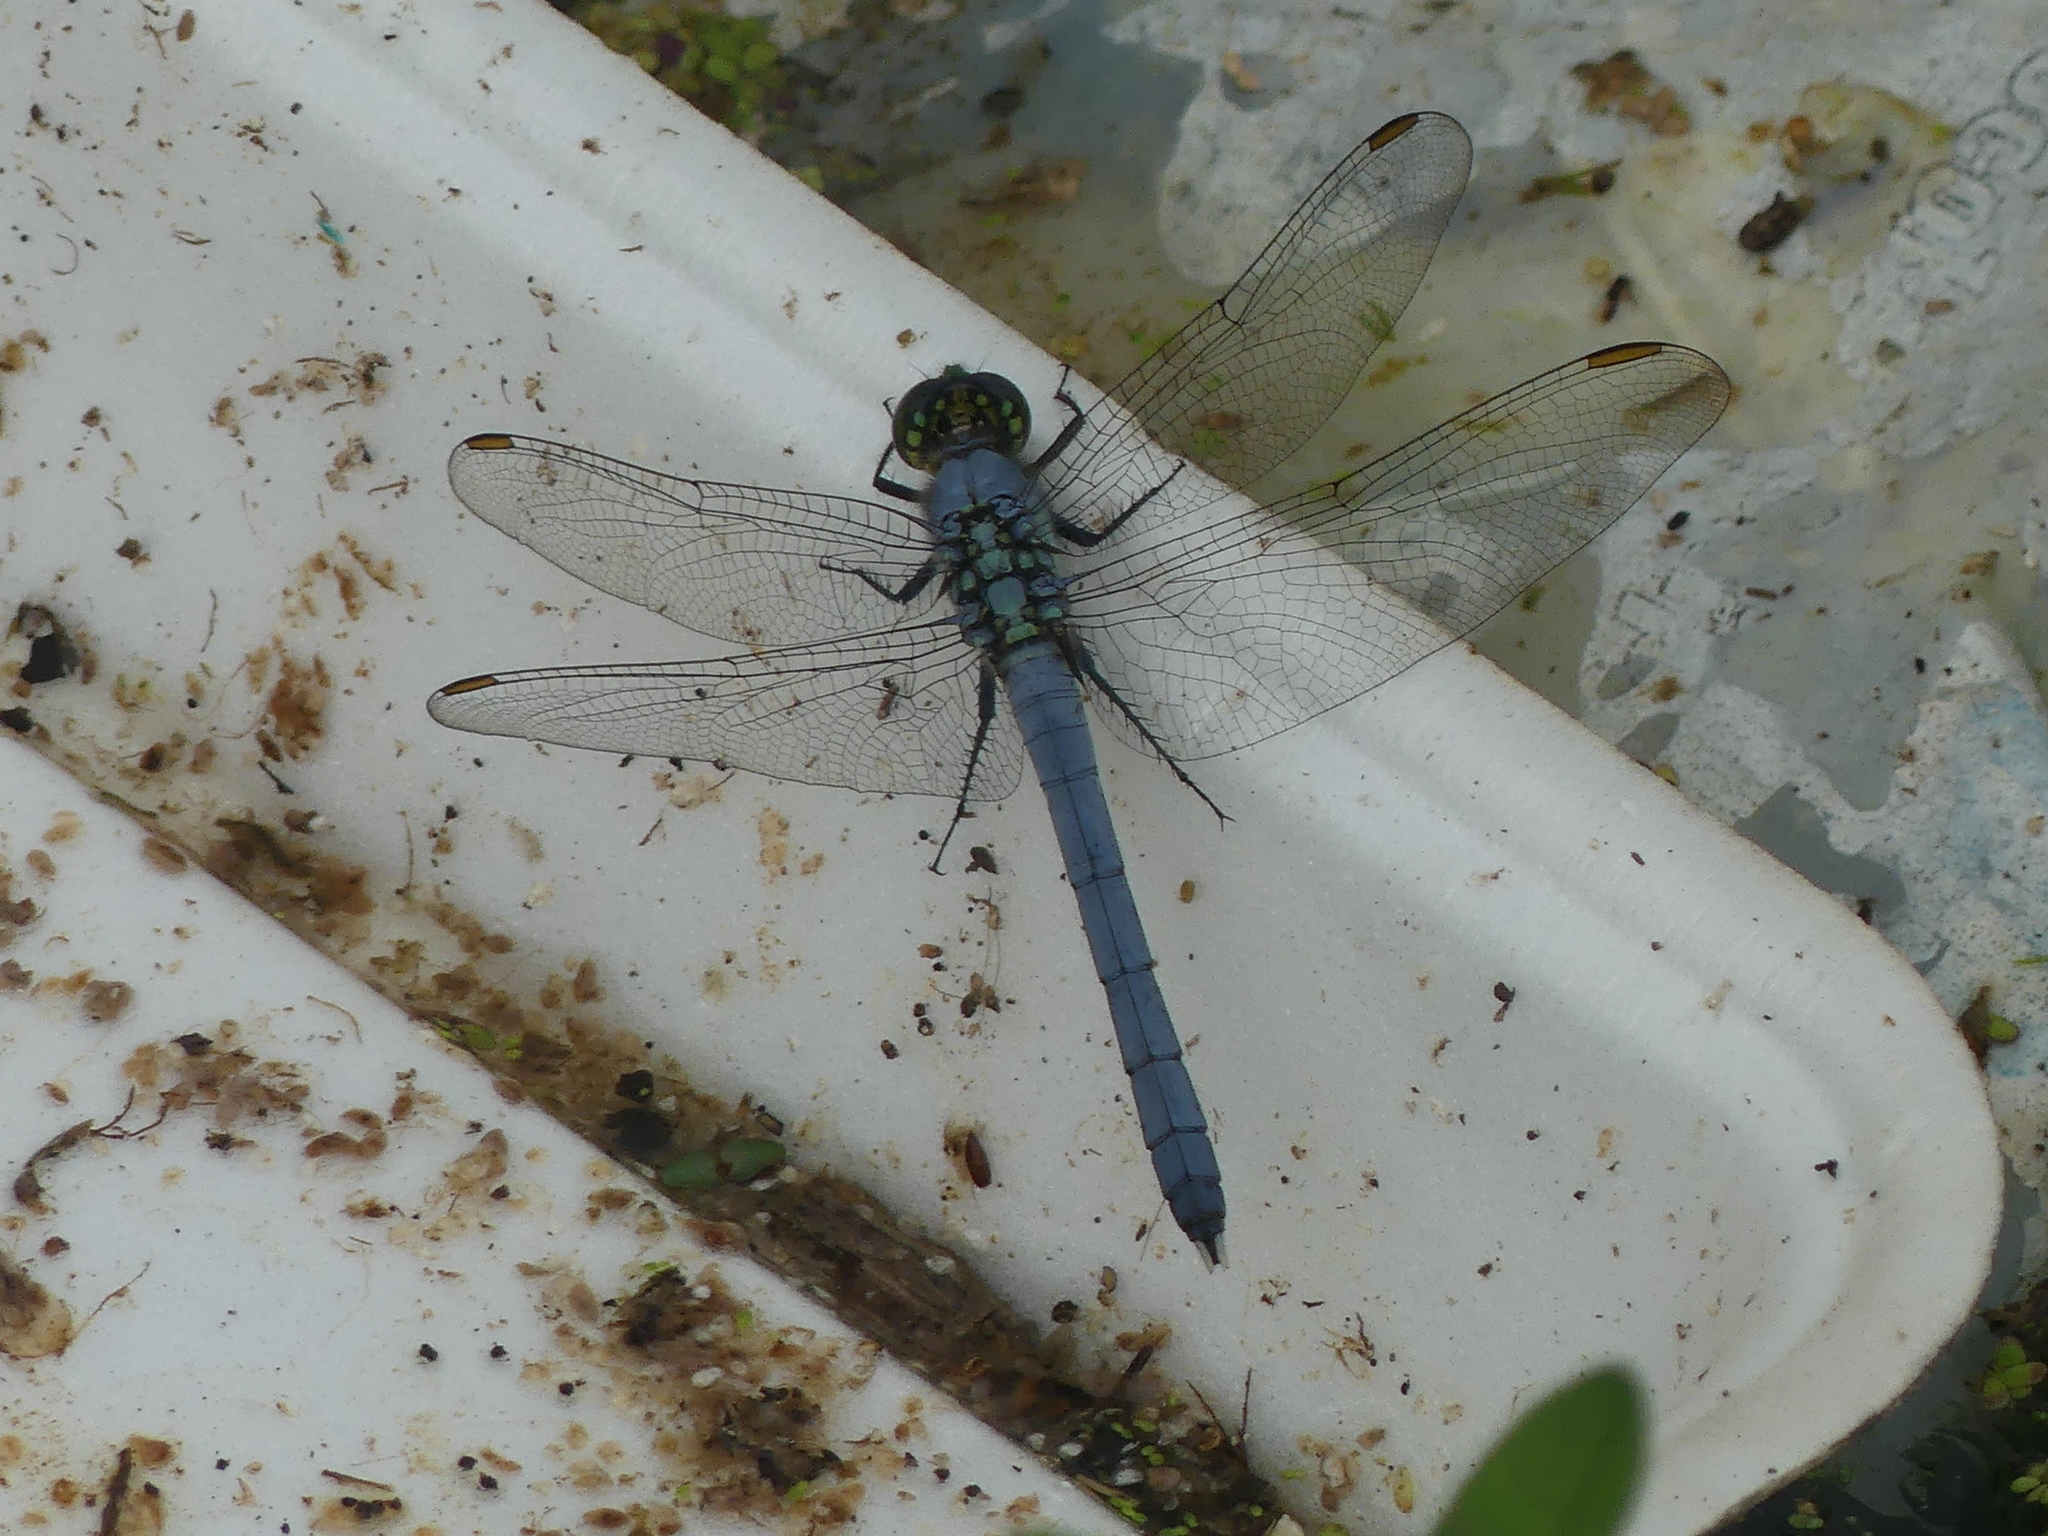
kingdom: Animalia
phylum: Arthropoda
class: Insecta
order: Odonata
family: Libellulidae
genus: Erythemis
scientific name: Erythemis simplicicollis
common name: Eastern pondhawk
